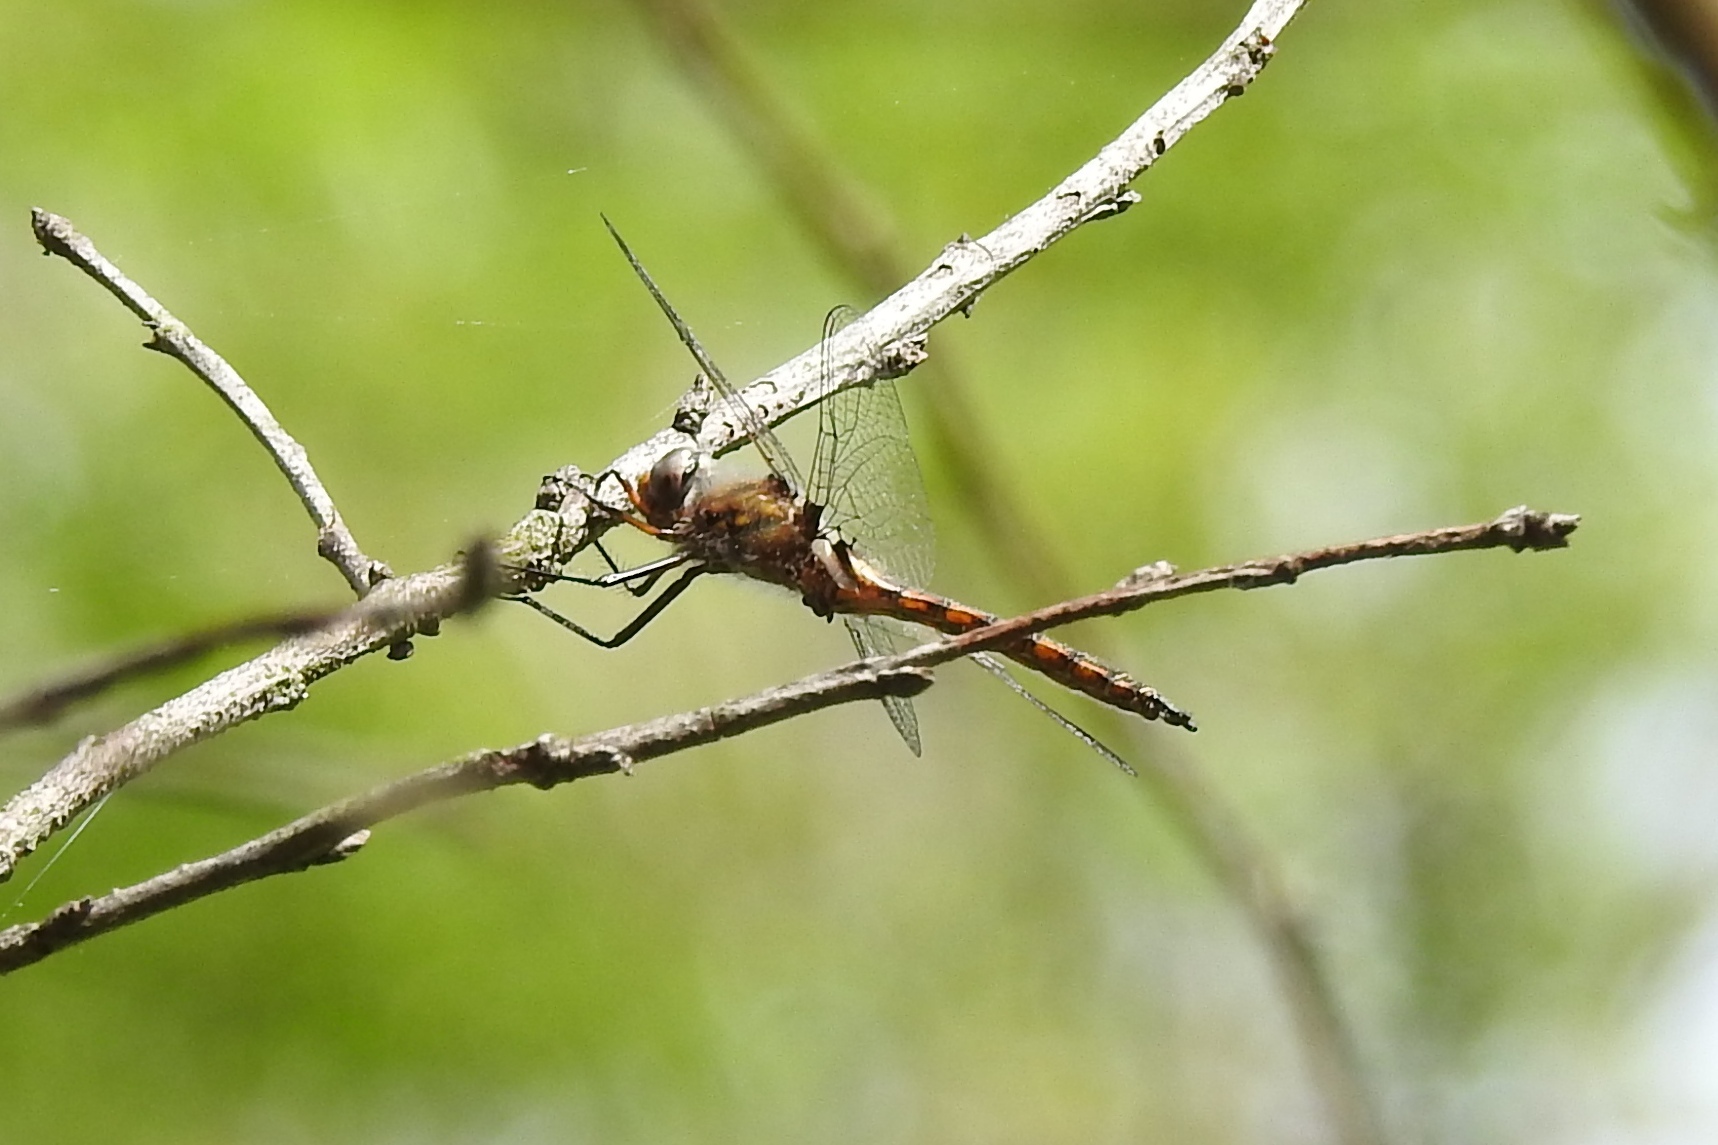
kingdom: Animalia
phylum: Arthropoda
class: Insecta
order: Odonata
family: Corduliidae
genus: Epitheca
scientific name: Epitheca cynosura
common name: Common baskettail
